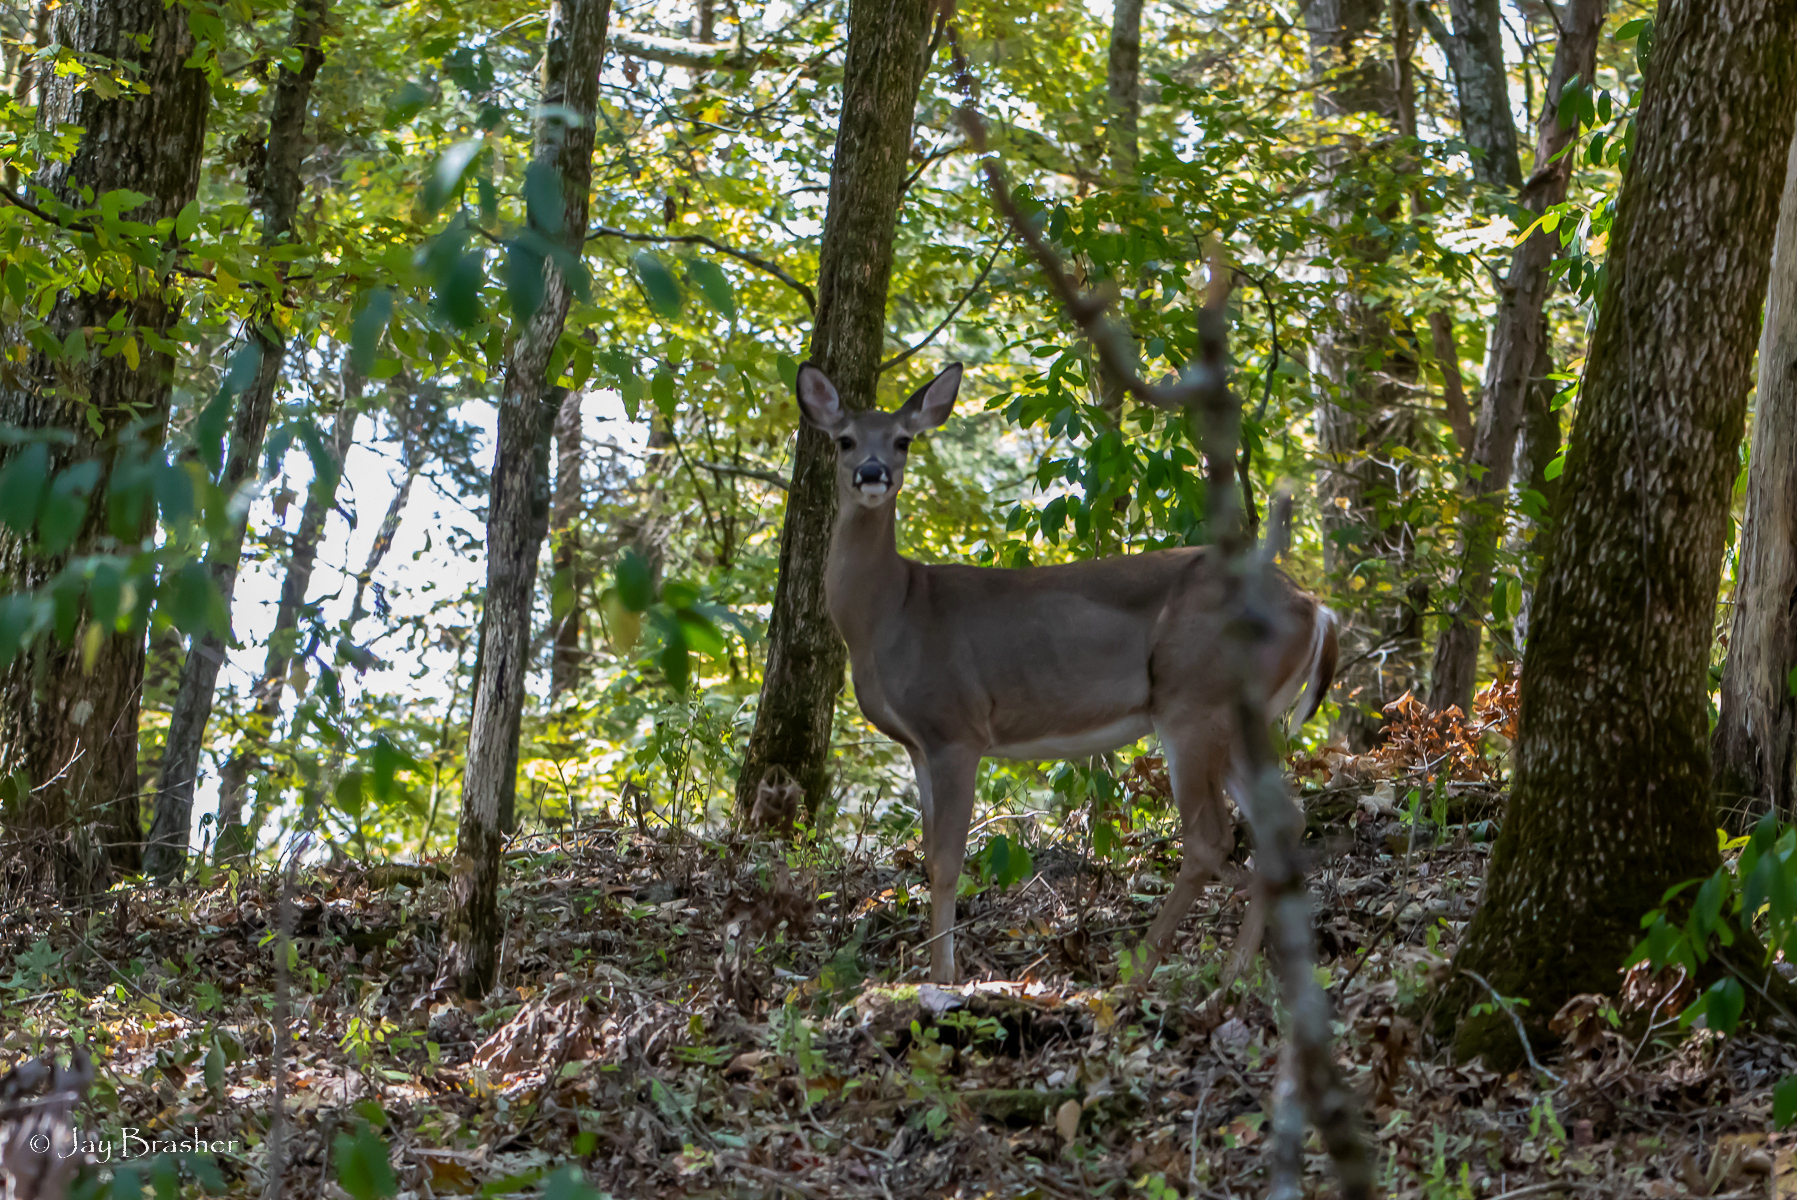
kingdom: Animalia
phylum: Chordata
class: Mammalia
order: Artiodactyla
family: Cervidae
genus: Odocoileus
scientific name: Odocoileus virginianus
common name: White-tailed deer
